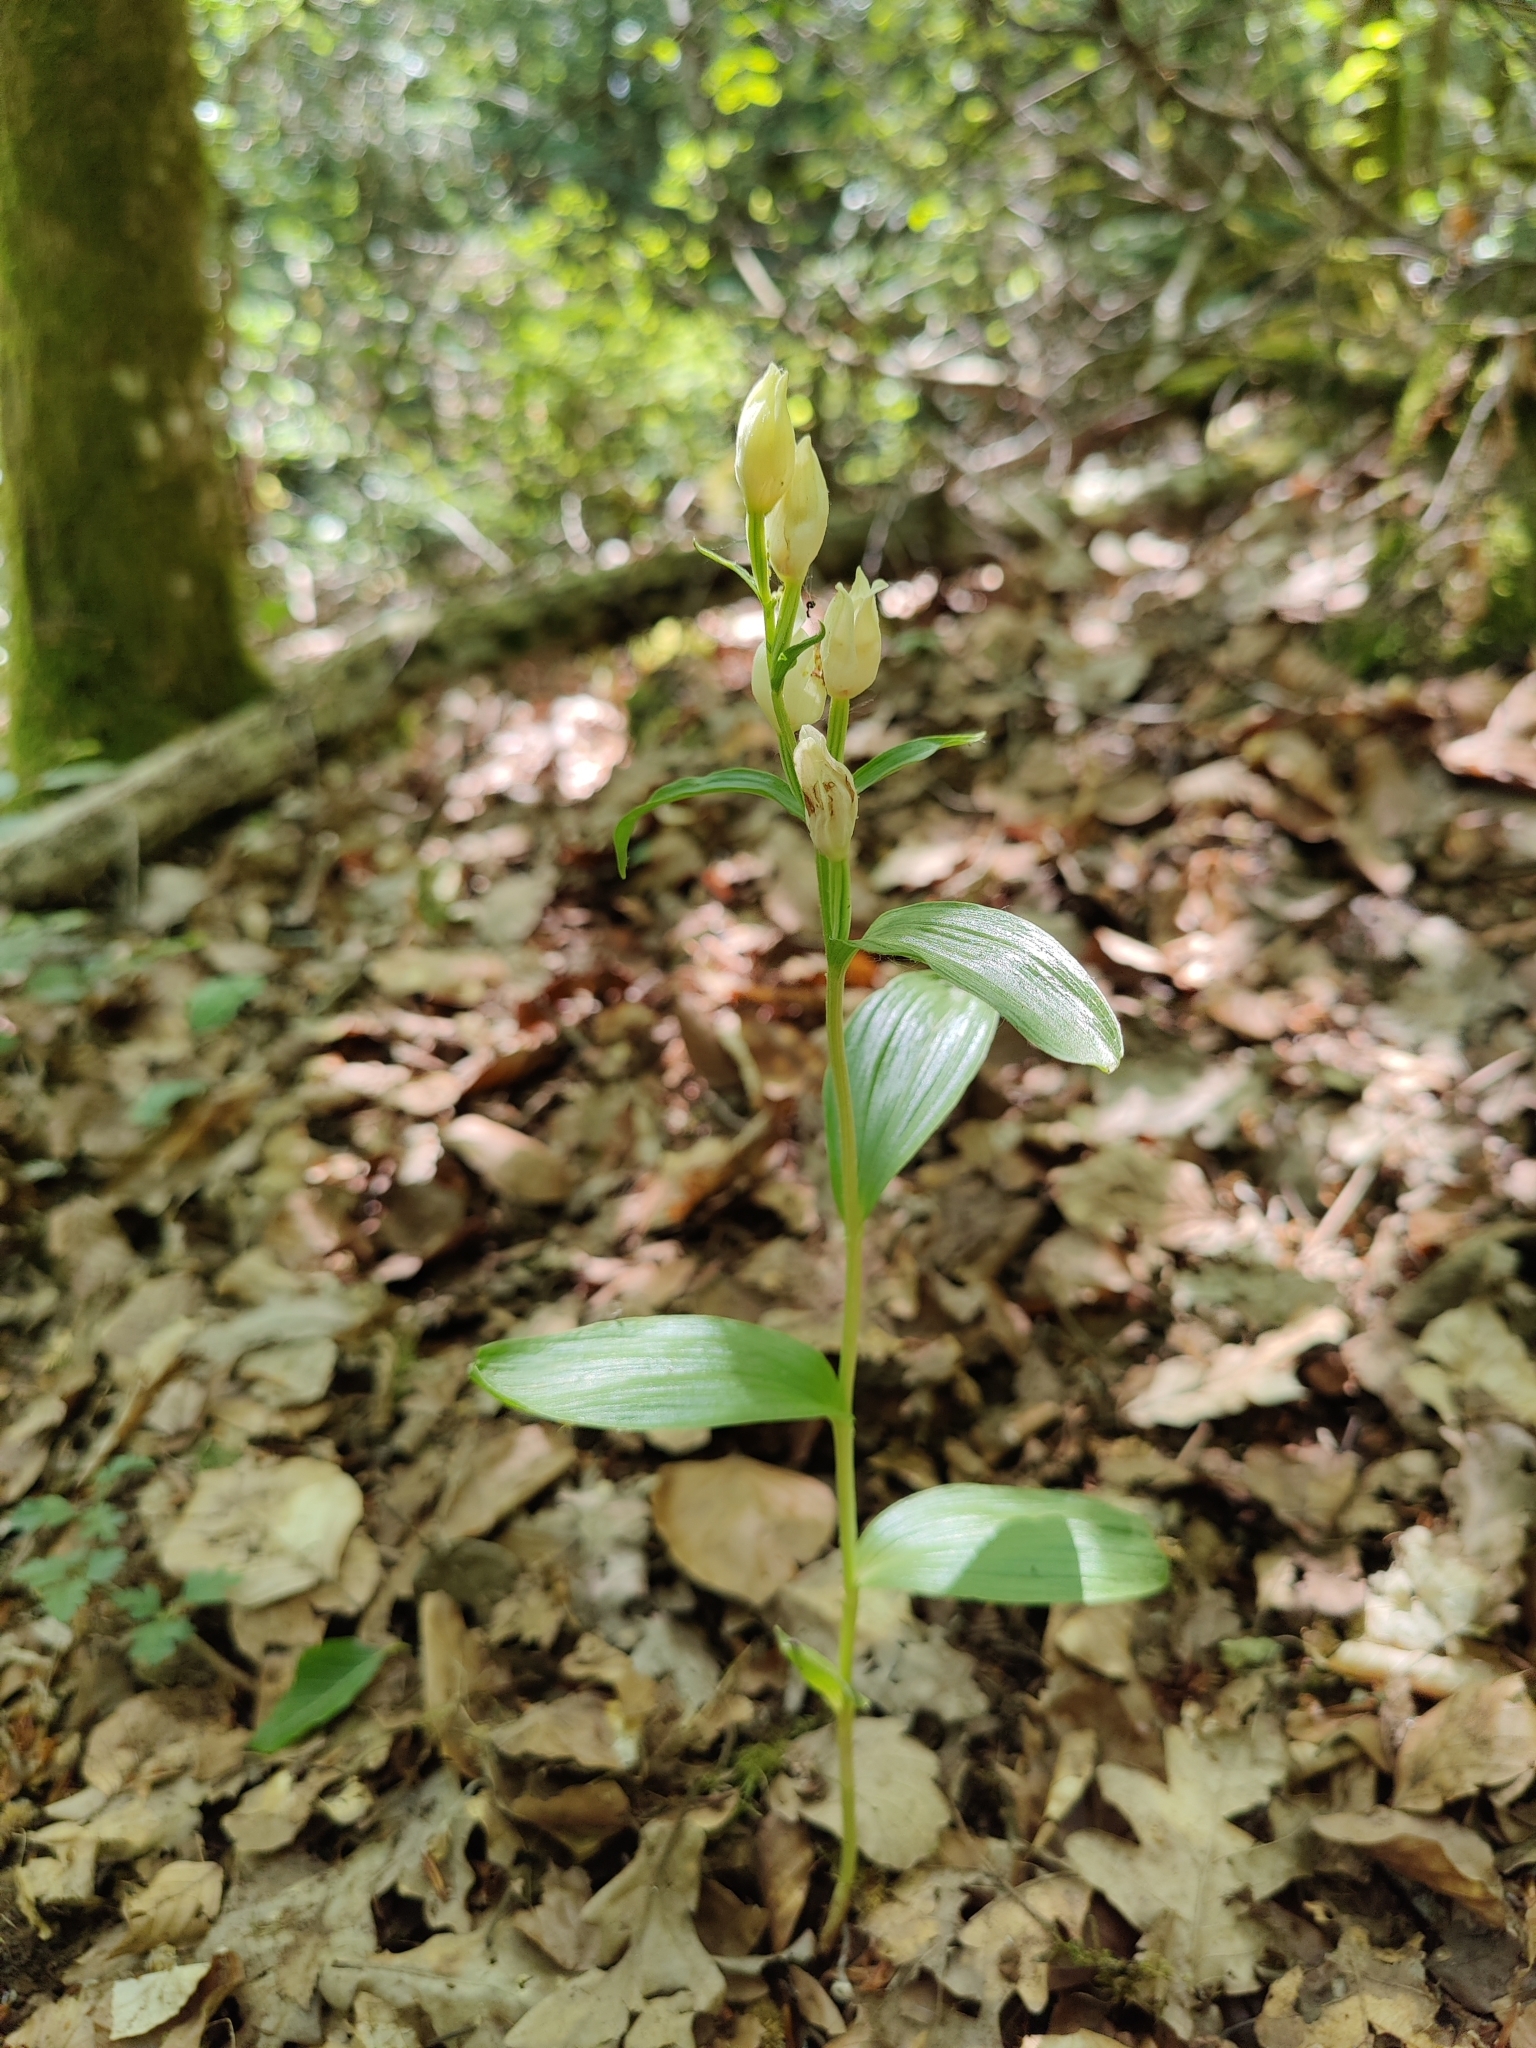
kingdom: Plantae
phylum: Tracheophyta
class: Liliopsida
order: Asparagales
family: Orchidaceae
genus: Cephalanthera
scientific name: Cephalanthera damasonium
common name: White helleborine
